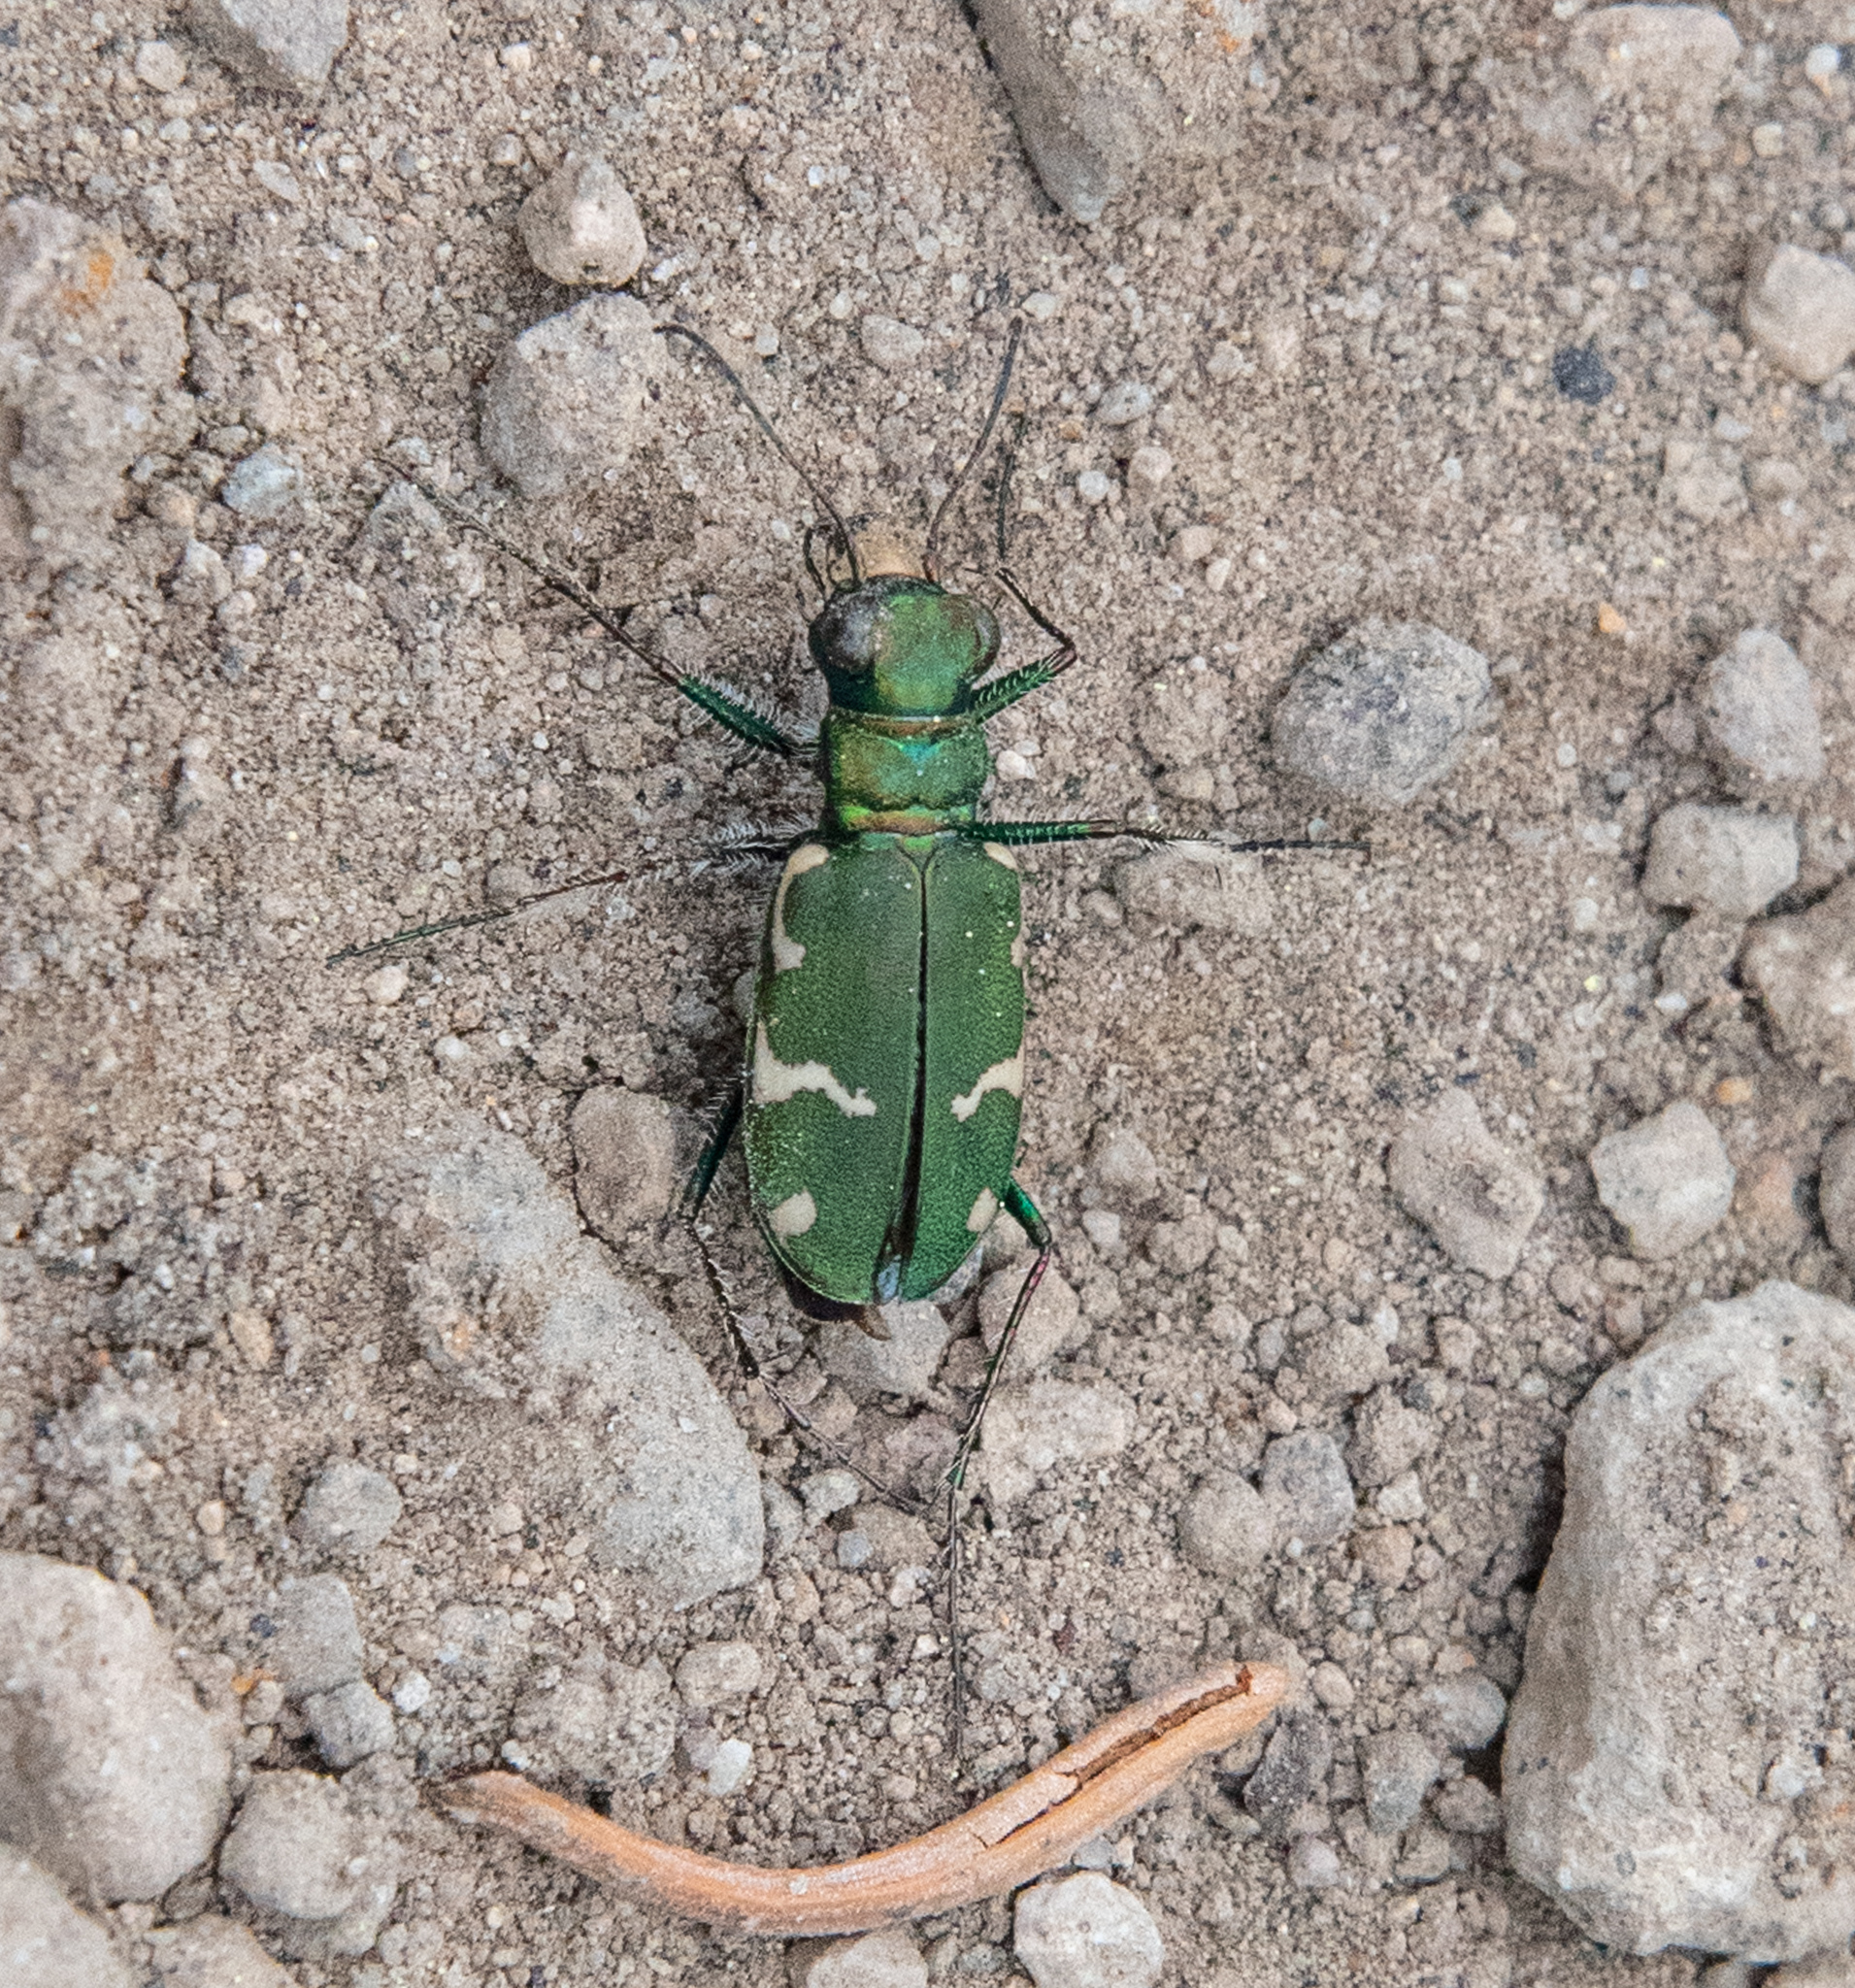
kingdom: Animalia
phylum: Arthropoda
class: Insecta
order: Coleoptera
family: Carabidae
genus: Cicindela
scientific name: Cicindela longilabris
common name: Boreal long-lipped tiger beetle
